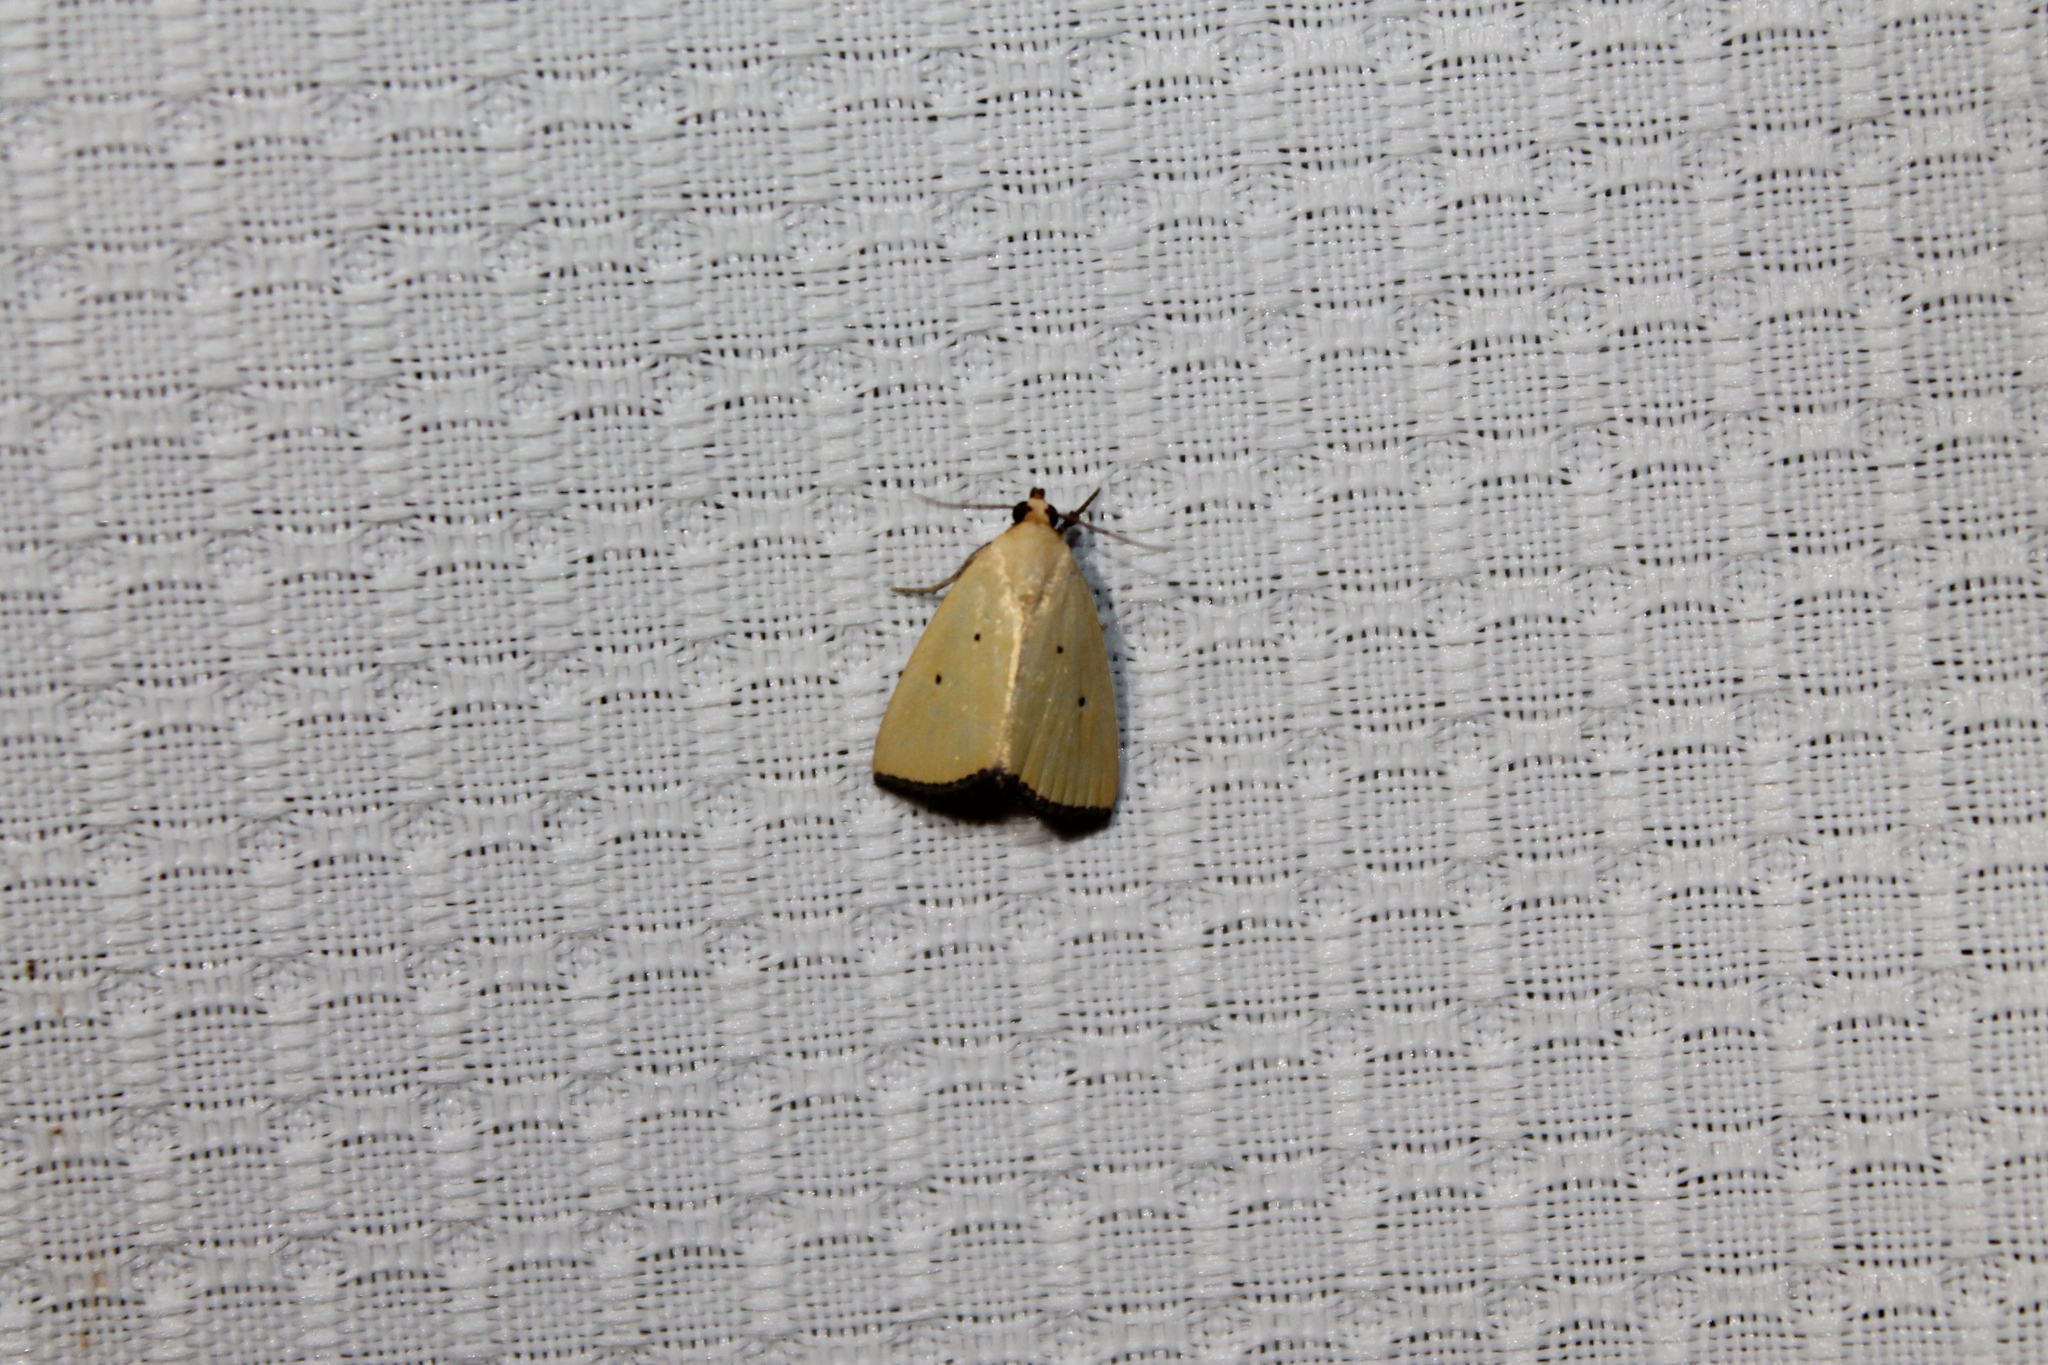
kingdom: Animalia
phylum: Arthropoda
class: Insecta
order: Lepidoptera
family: Noctuidae
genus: Marimatha
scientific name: Marimatha nigrofimbria
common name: Black-bordered lemon moth
